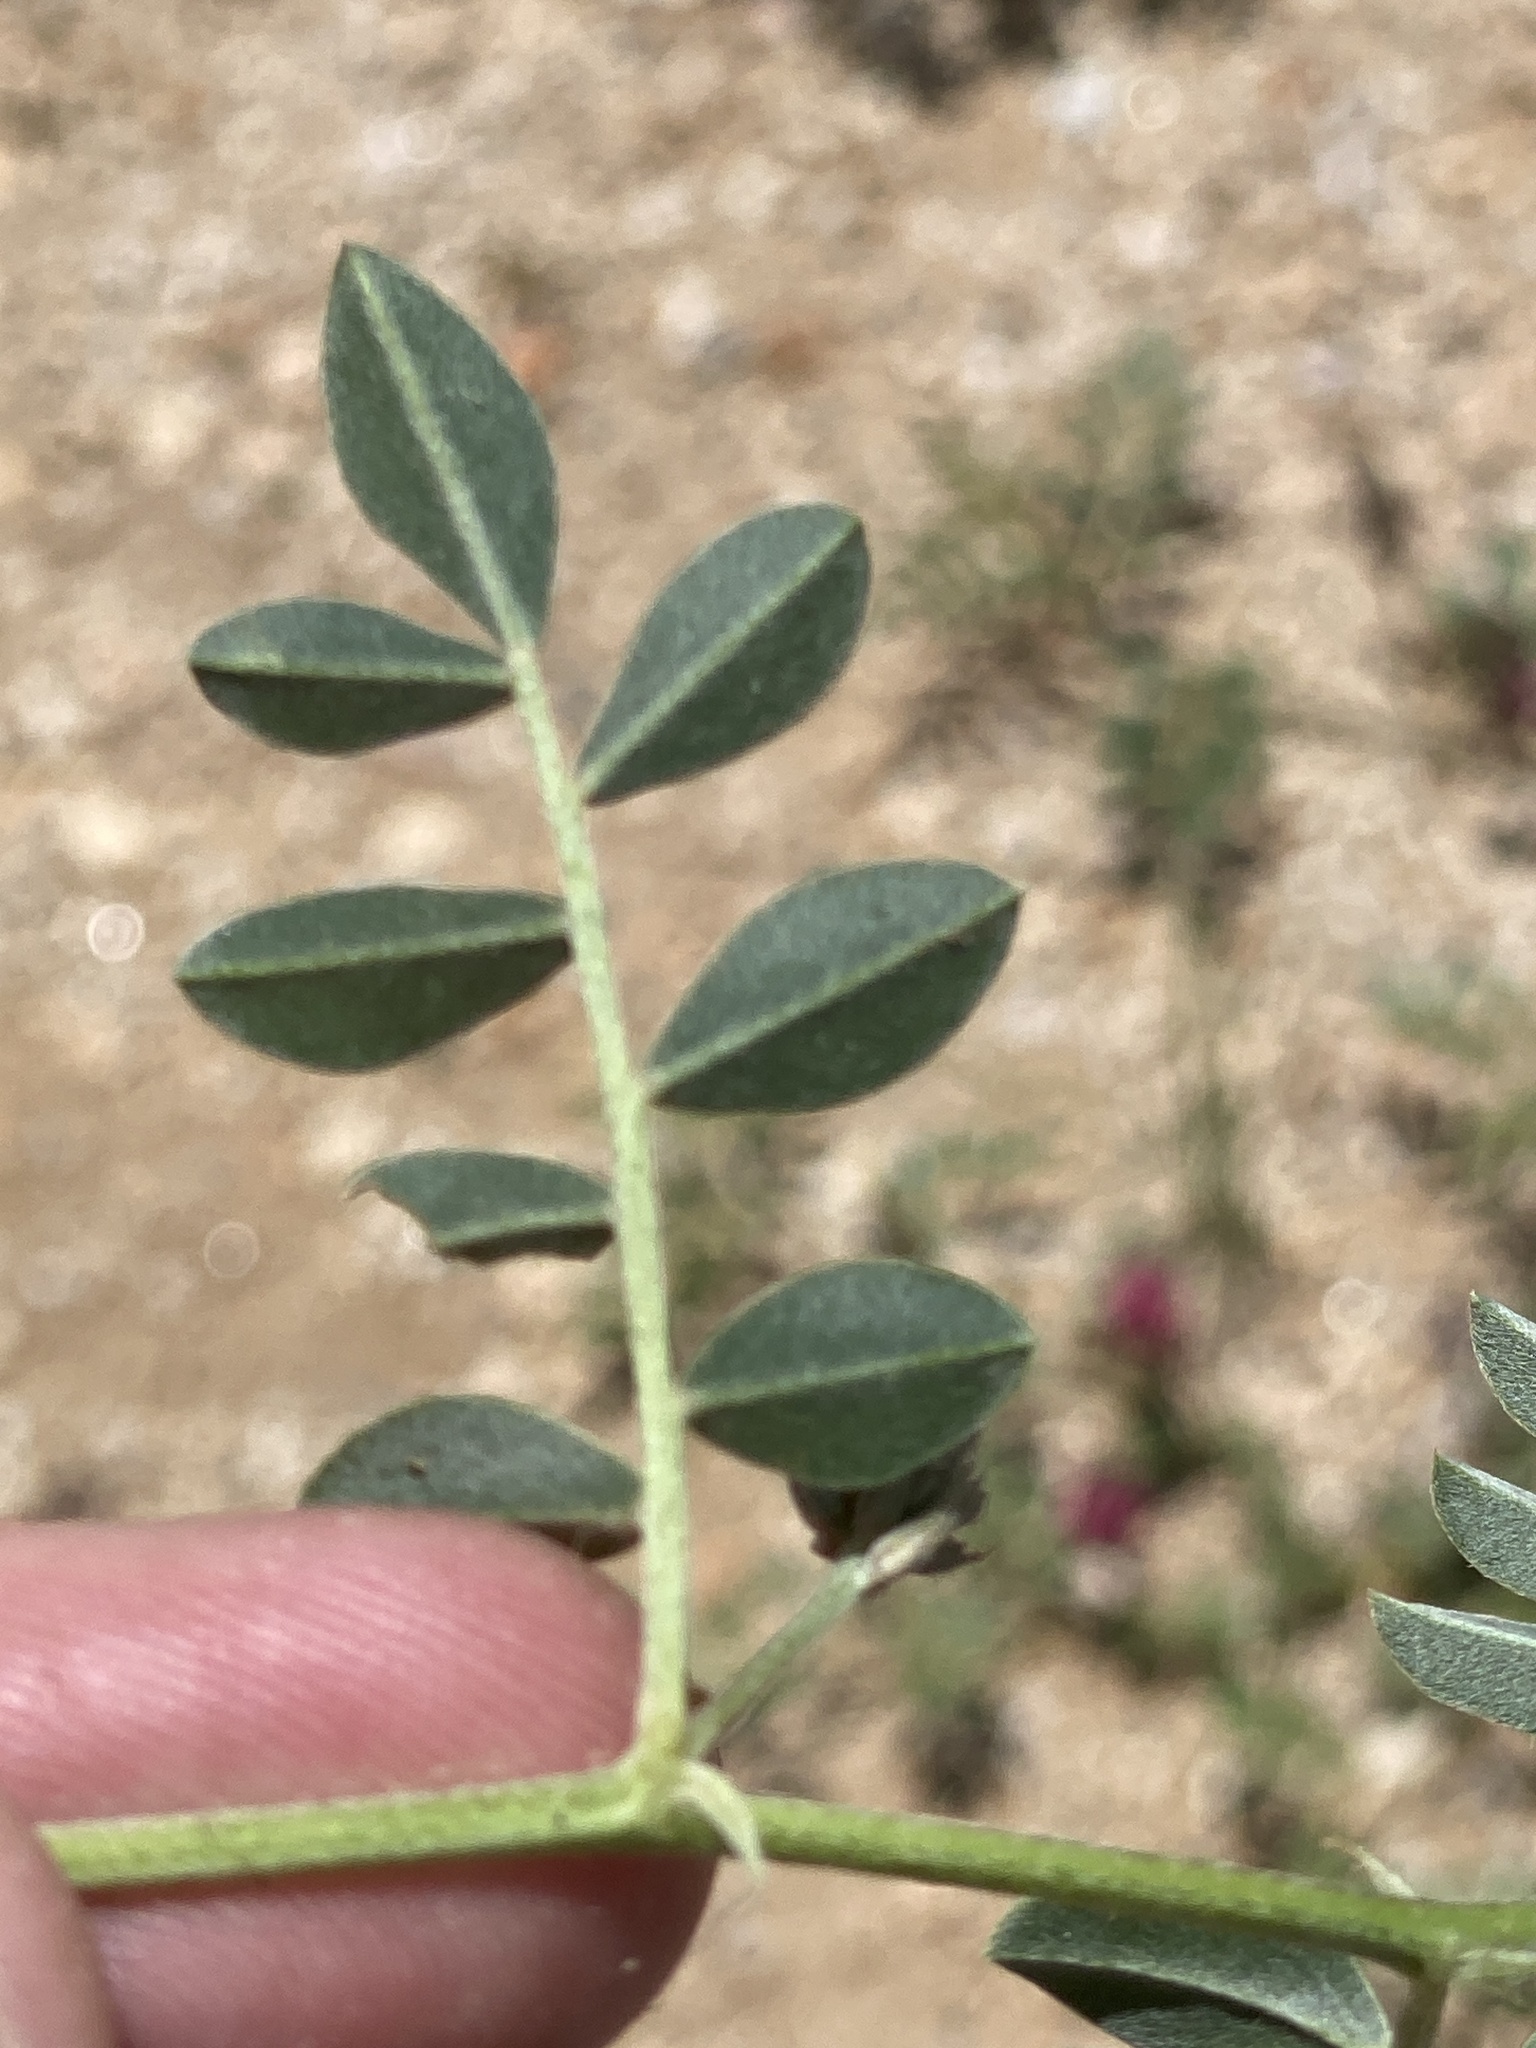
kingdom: Plantae
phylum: Tracheophyta
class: Magnoliopsida
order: Fabales
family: Fabaceae
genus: Indigofera
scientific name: Indigofera auricoma
